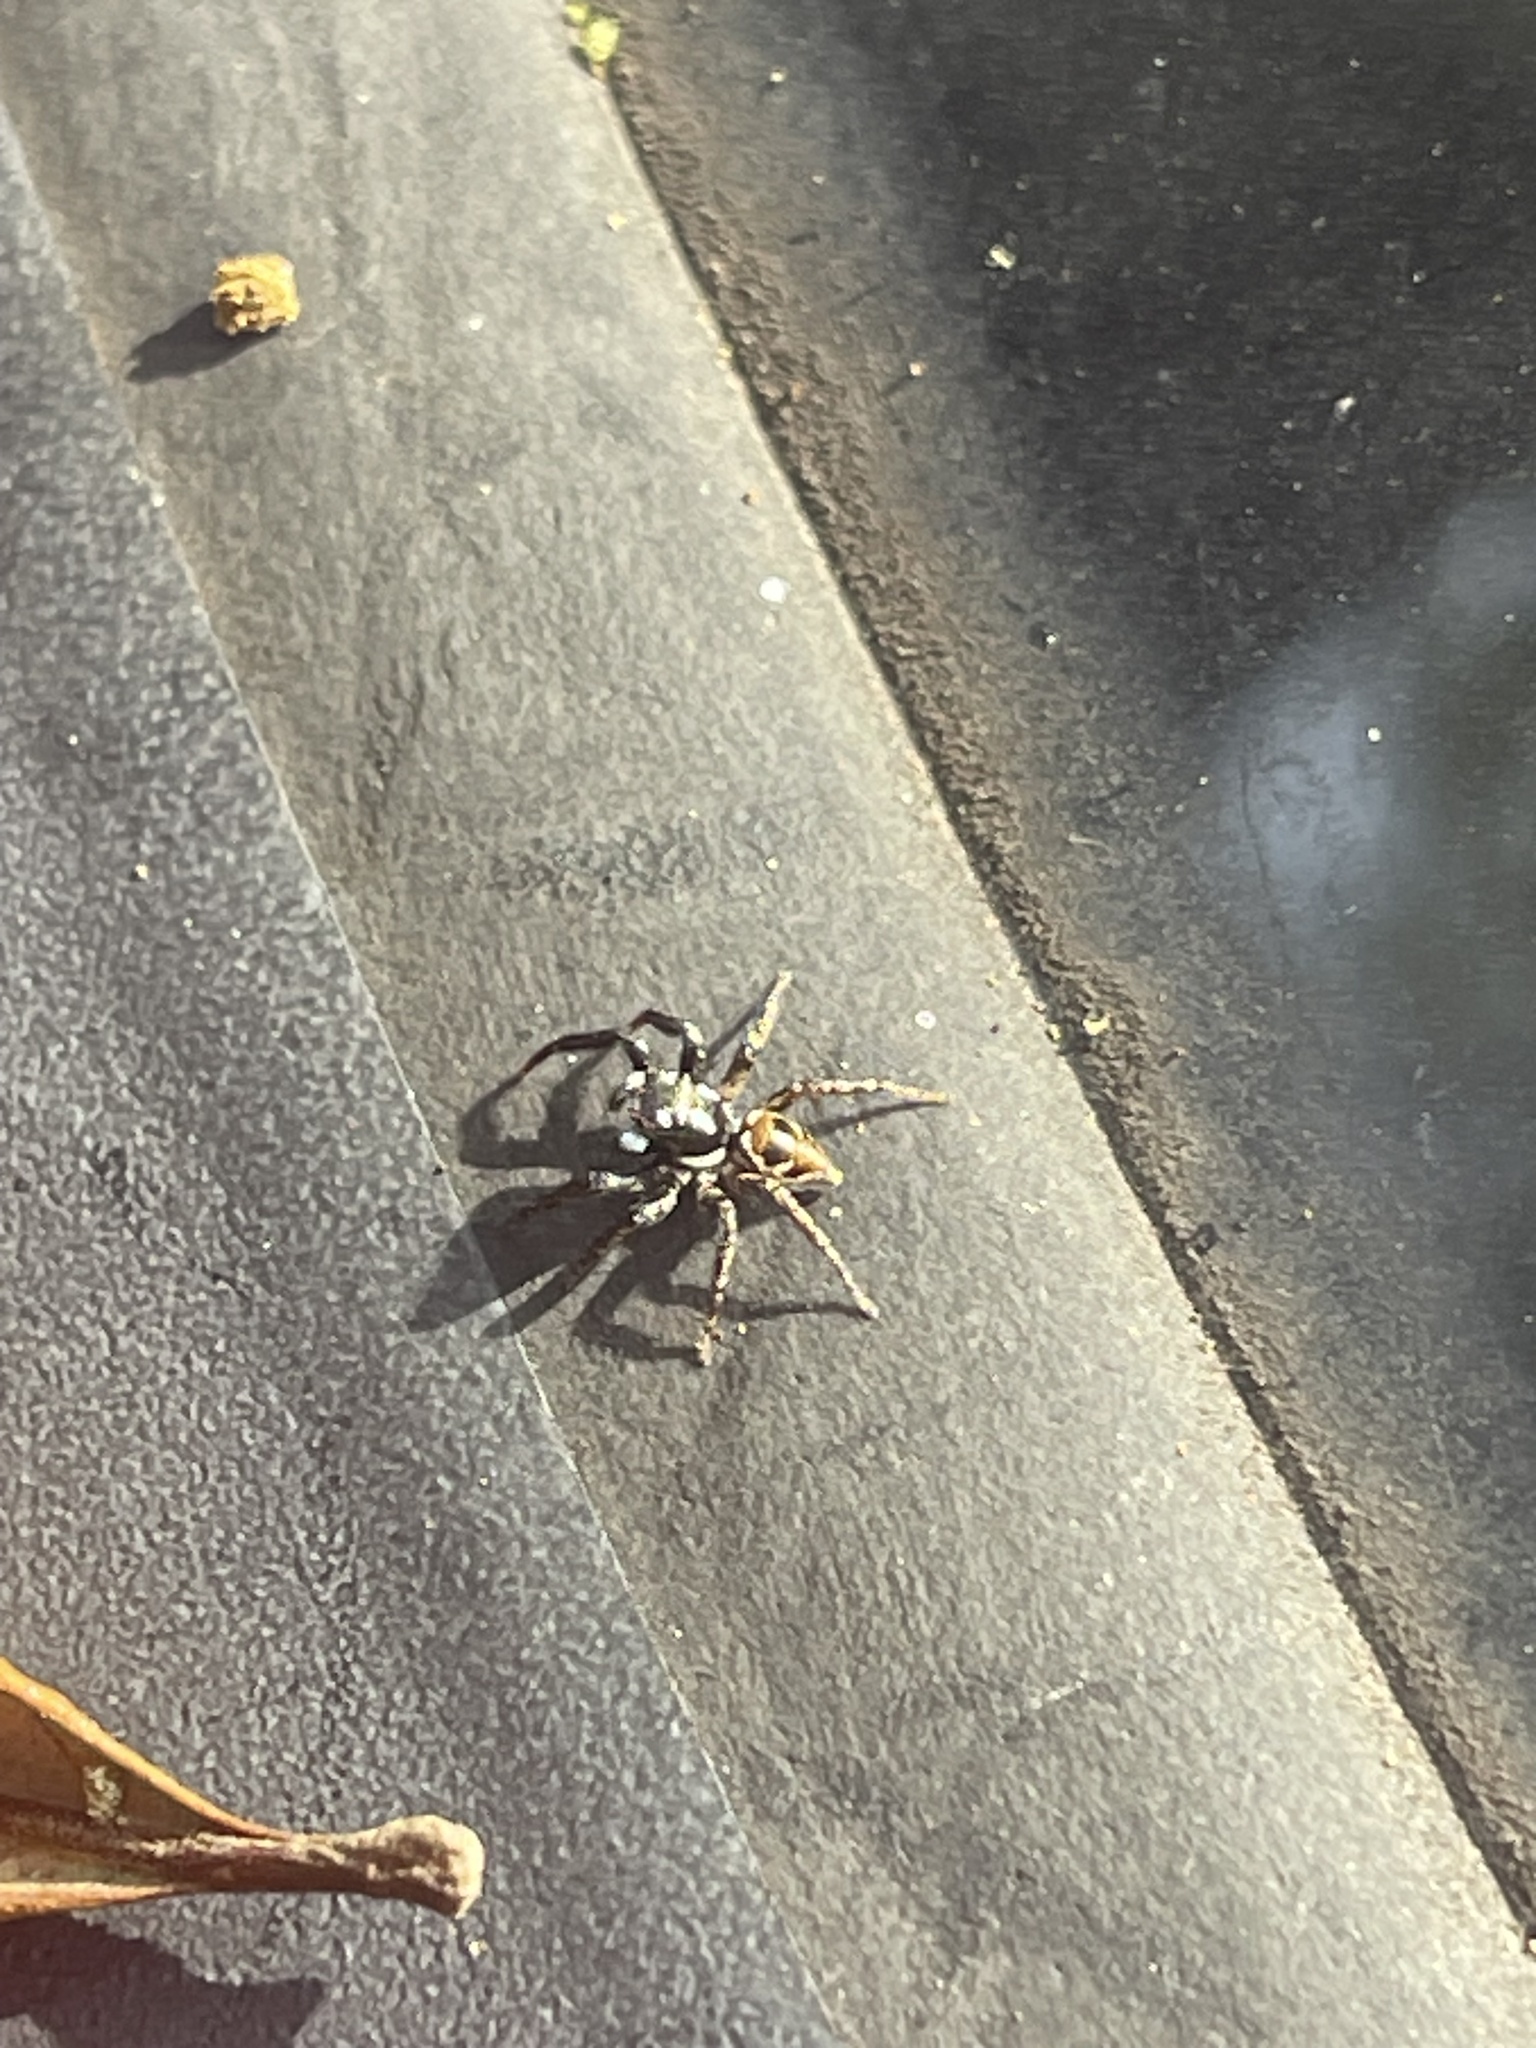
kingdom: Animalia
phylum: Arthropoda
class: Arachnida
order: Araneae
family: Salticidae
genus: Anasaitis
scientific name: Anasaitis canosa
